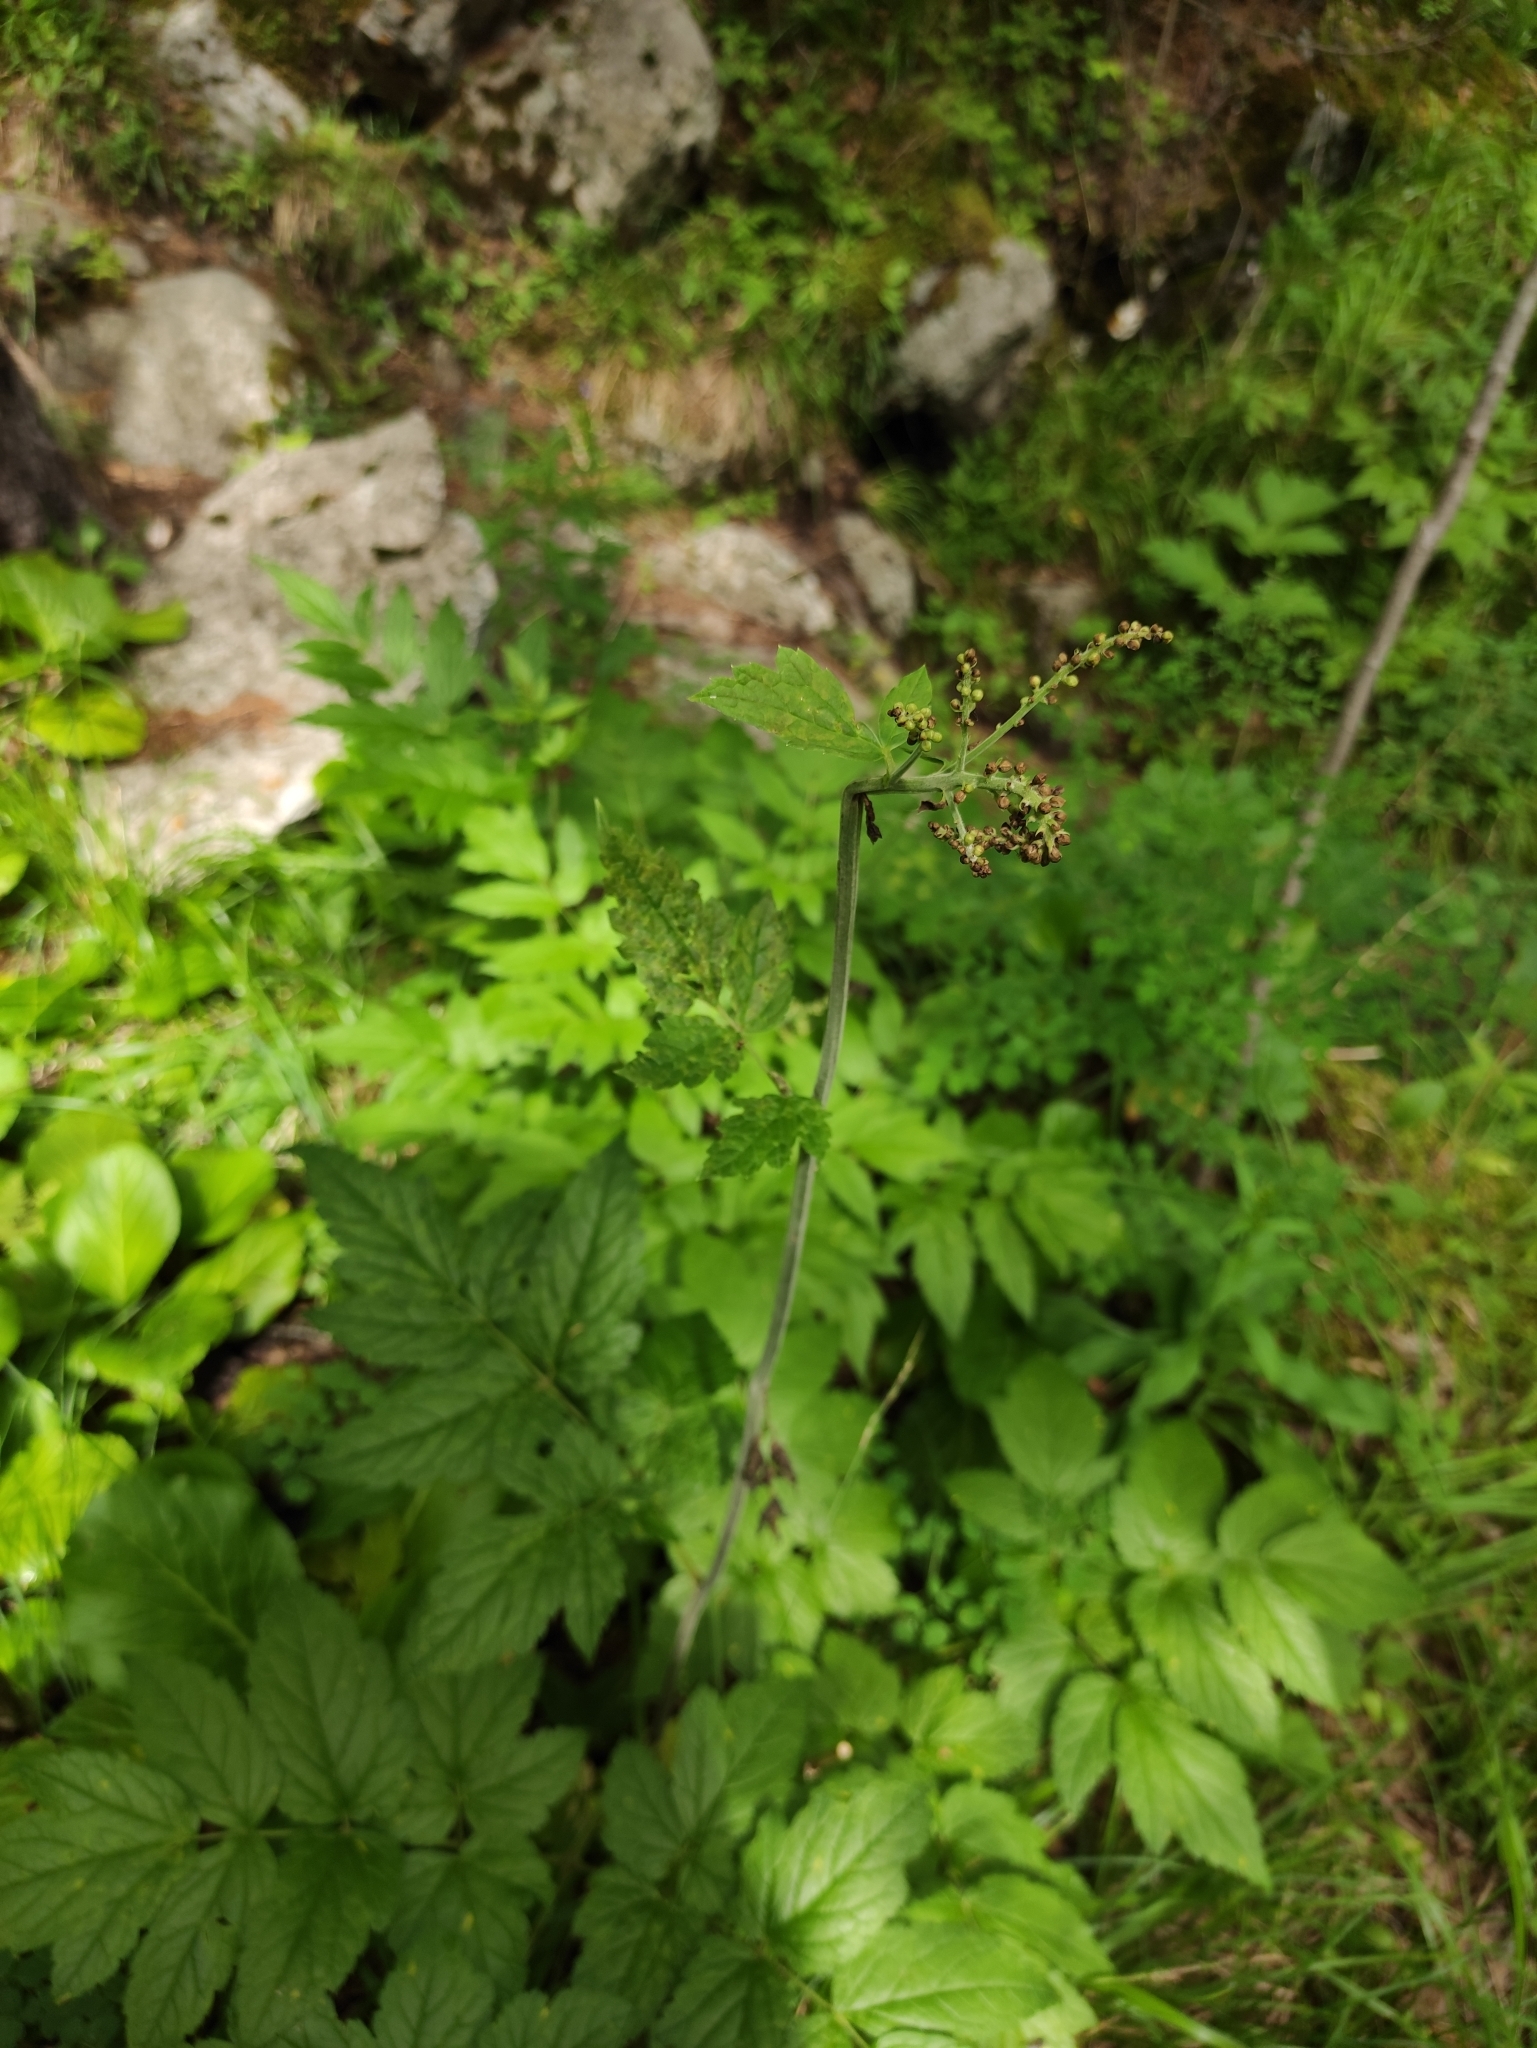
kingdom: Plantae
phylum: Tracheophyta
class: Magnoliopsida
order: Ranunculales
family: Ranunculaceae
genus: Actaea
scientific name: Actaea cimicifuga
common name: Chinese cimicifuga
